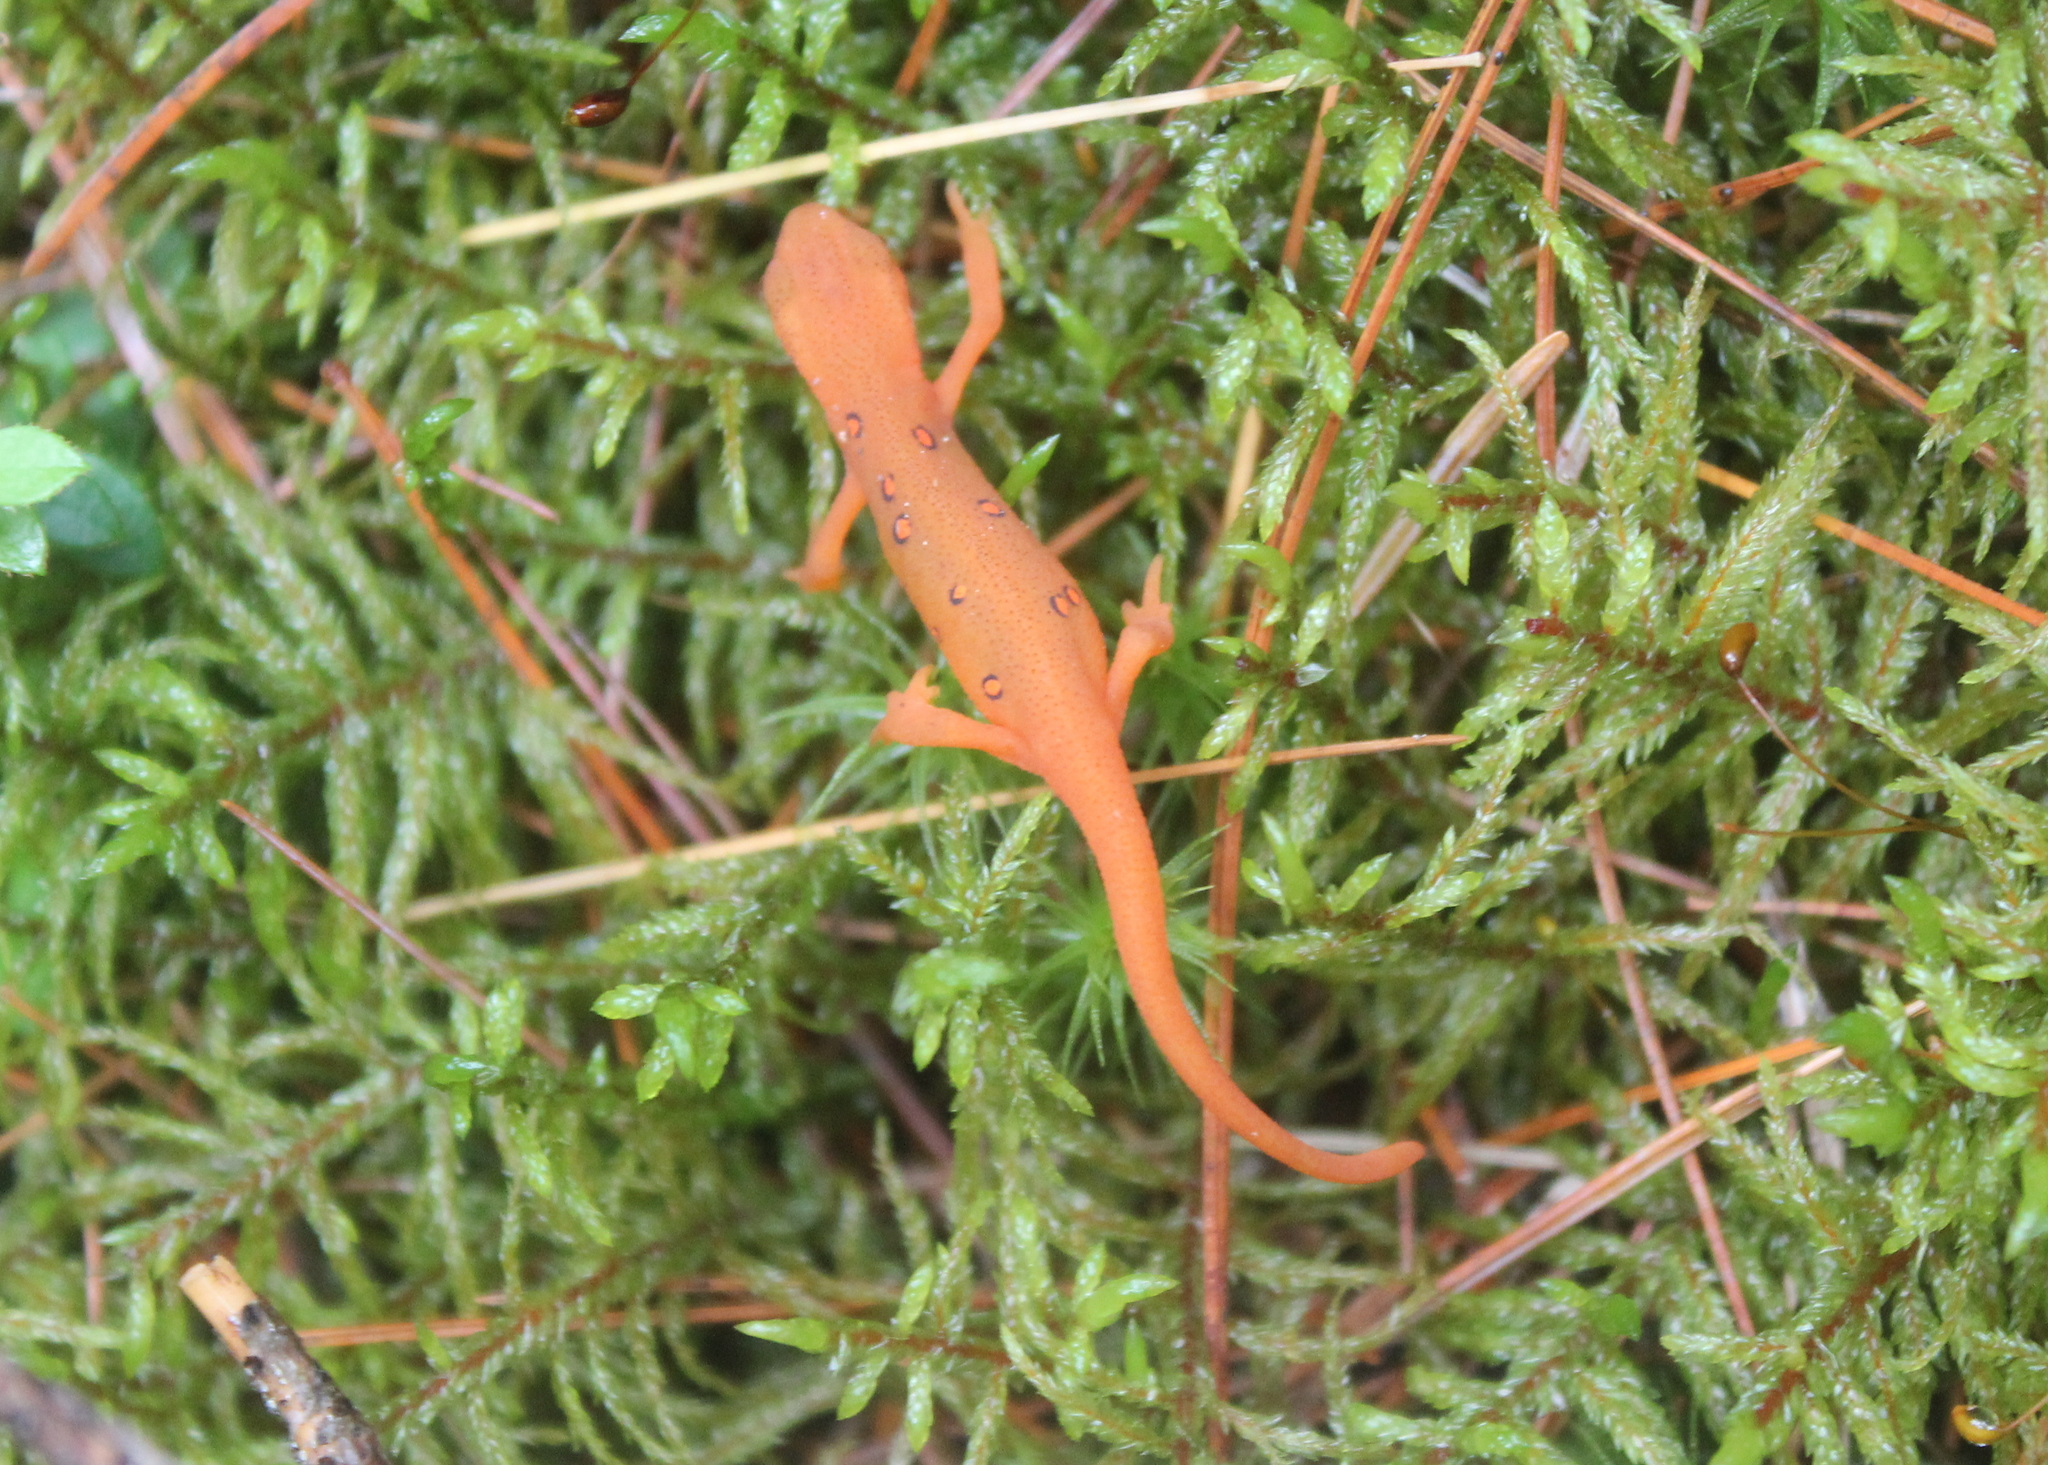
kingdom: Animalia
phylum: Chordata
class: Amphibia
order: Caudata
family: Salamandridae
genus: Notophthalmus
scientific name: Notophthalmus viridescens
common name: Eastern newt
